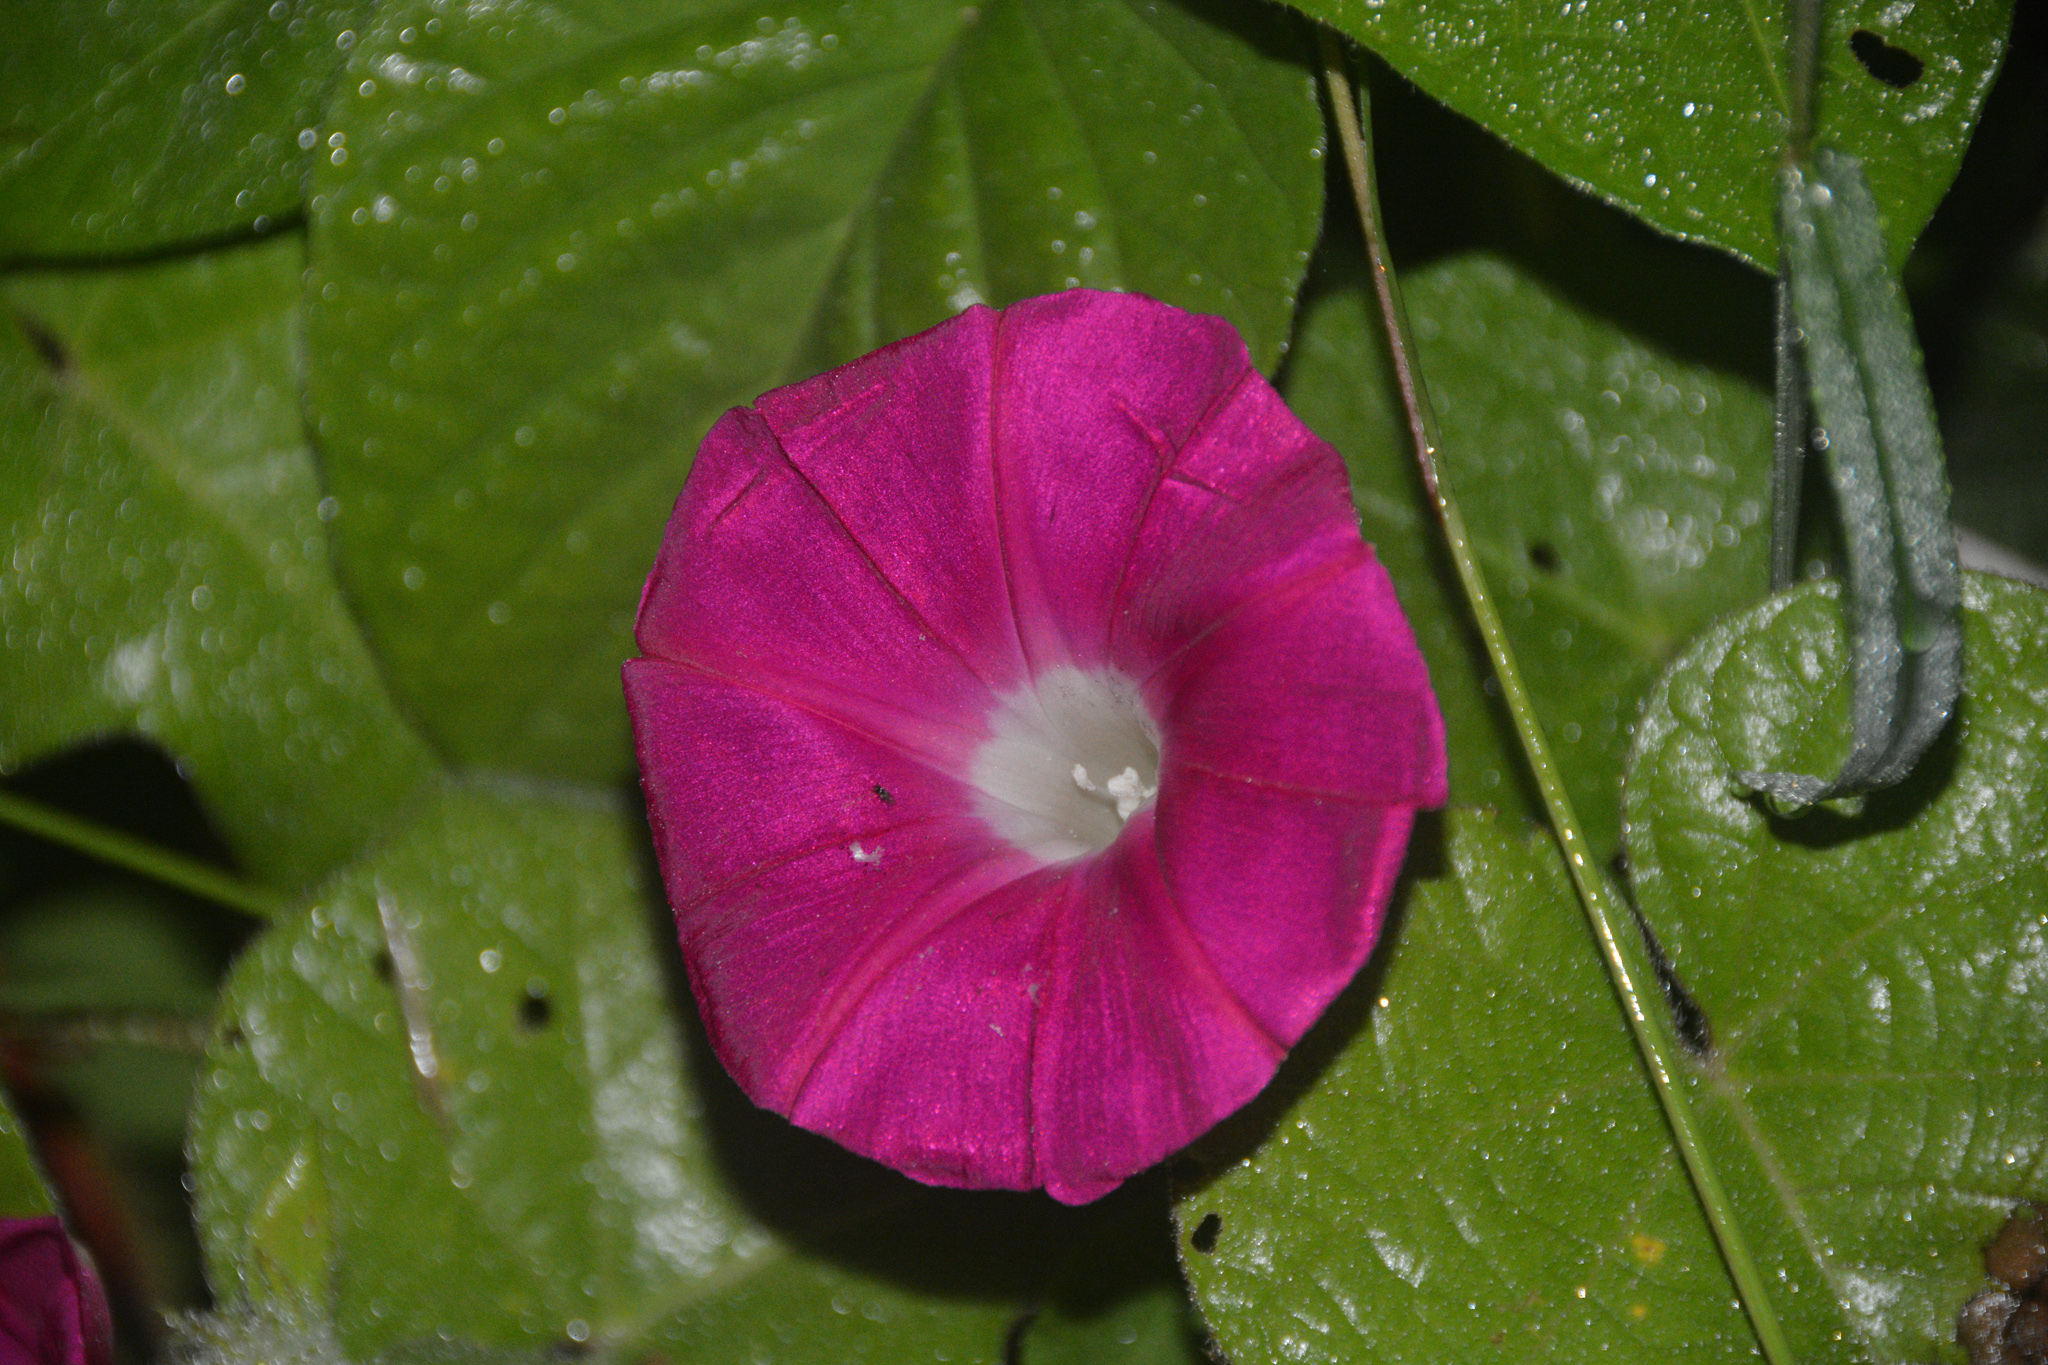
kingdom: Plantae
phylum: Tracheophyta
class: Magnoliopsida
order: Solanales
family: Convolvulaceae
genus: Ipomoea
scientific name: Ipomoea purpurea
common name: Common morning-glory
